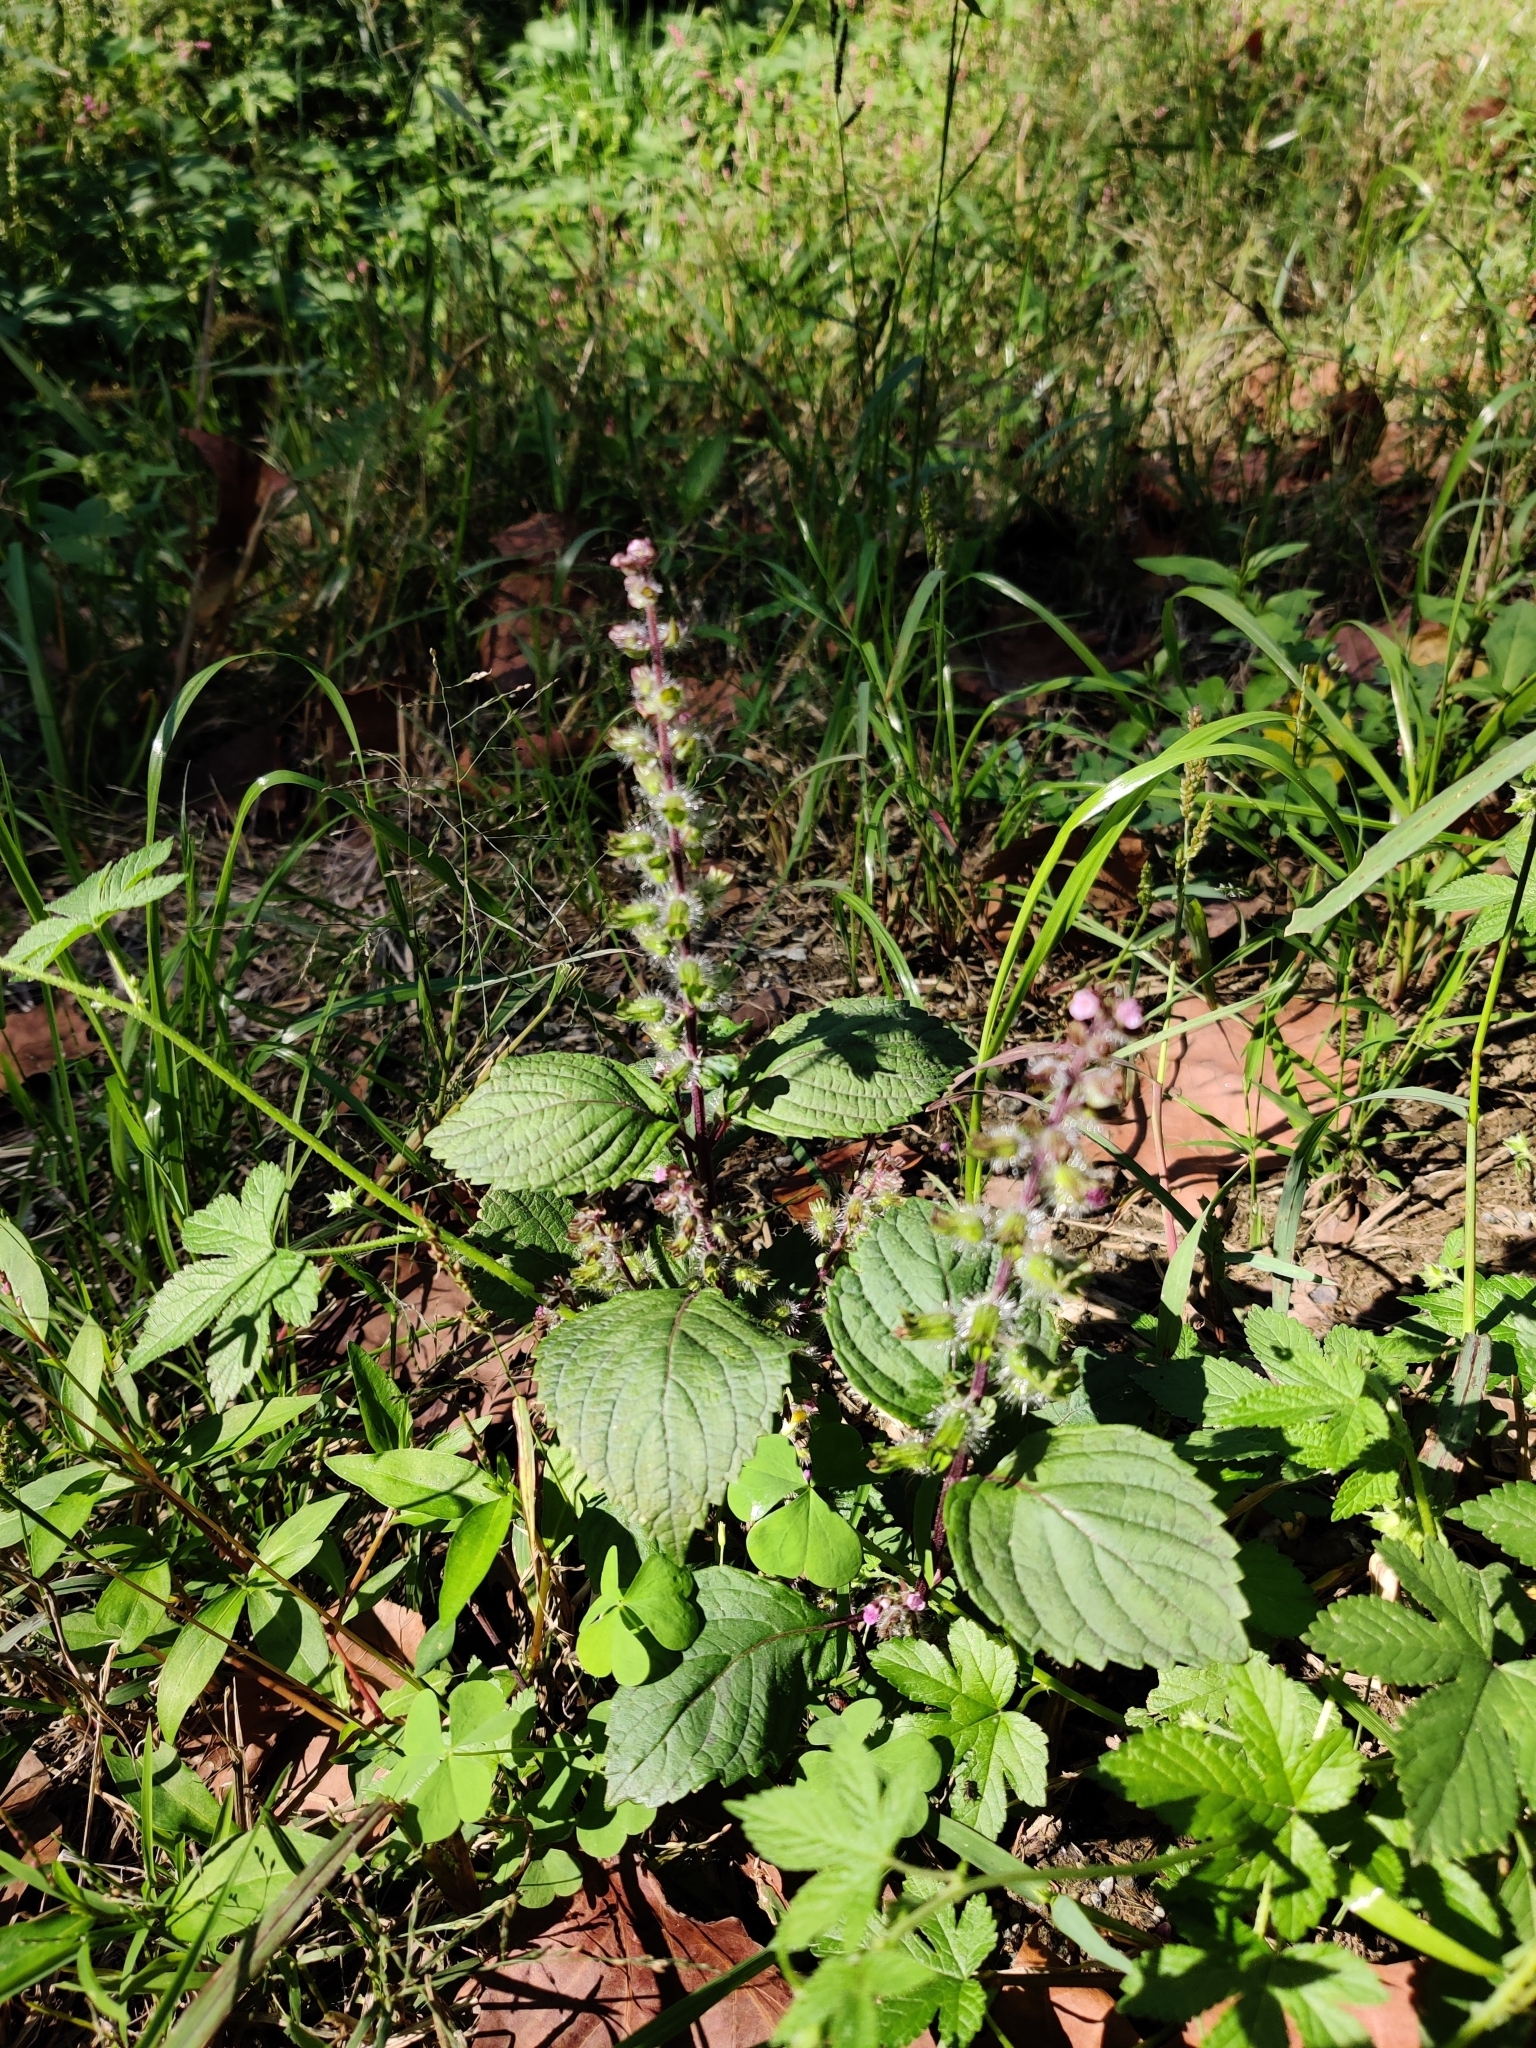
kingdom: Plantae
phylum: Tracheophyta
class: Magnoliopsida
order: Lamiales
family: Lamiaceae
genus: Perilla
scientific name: Perilla frutescens
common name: Perilla
